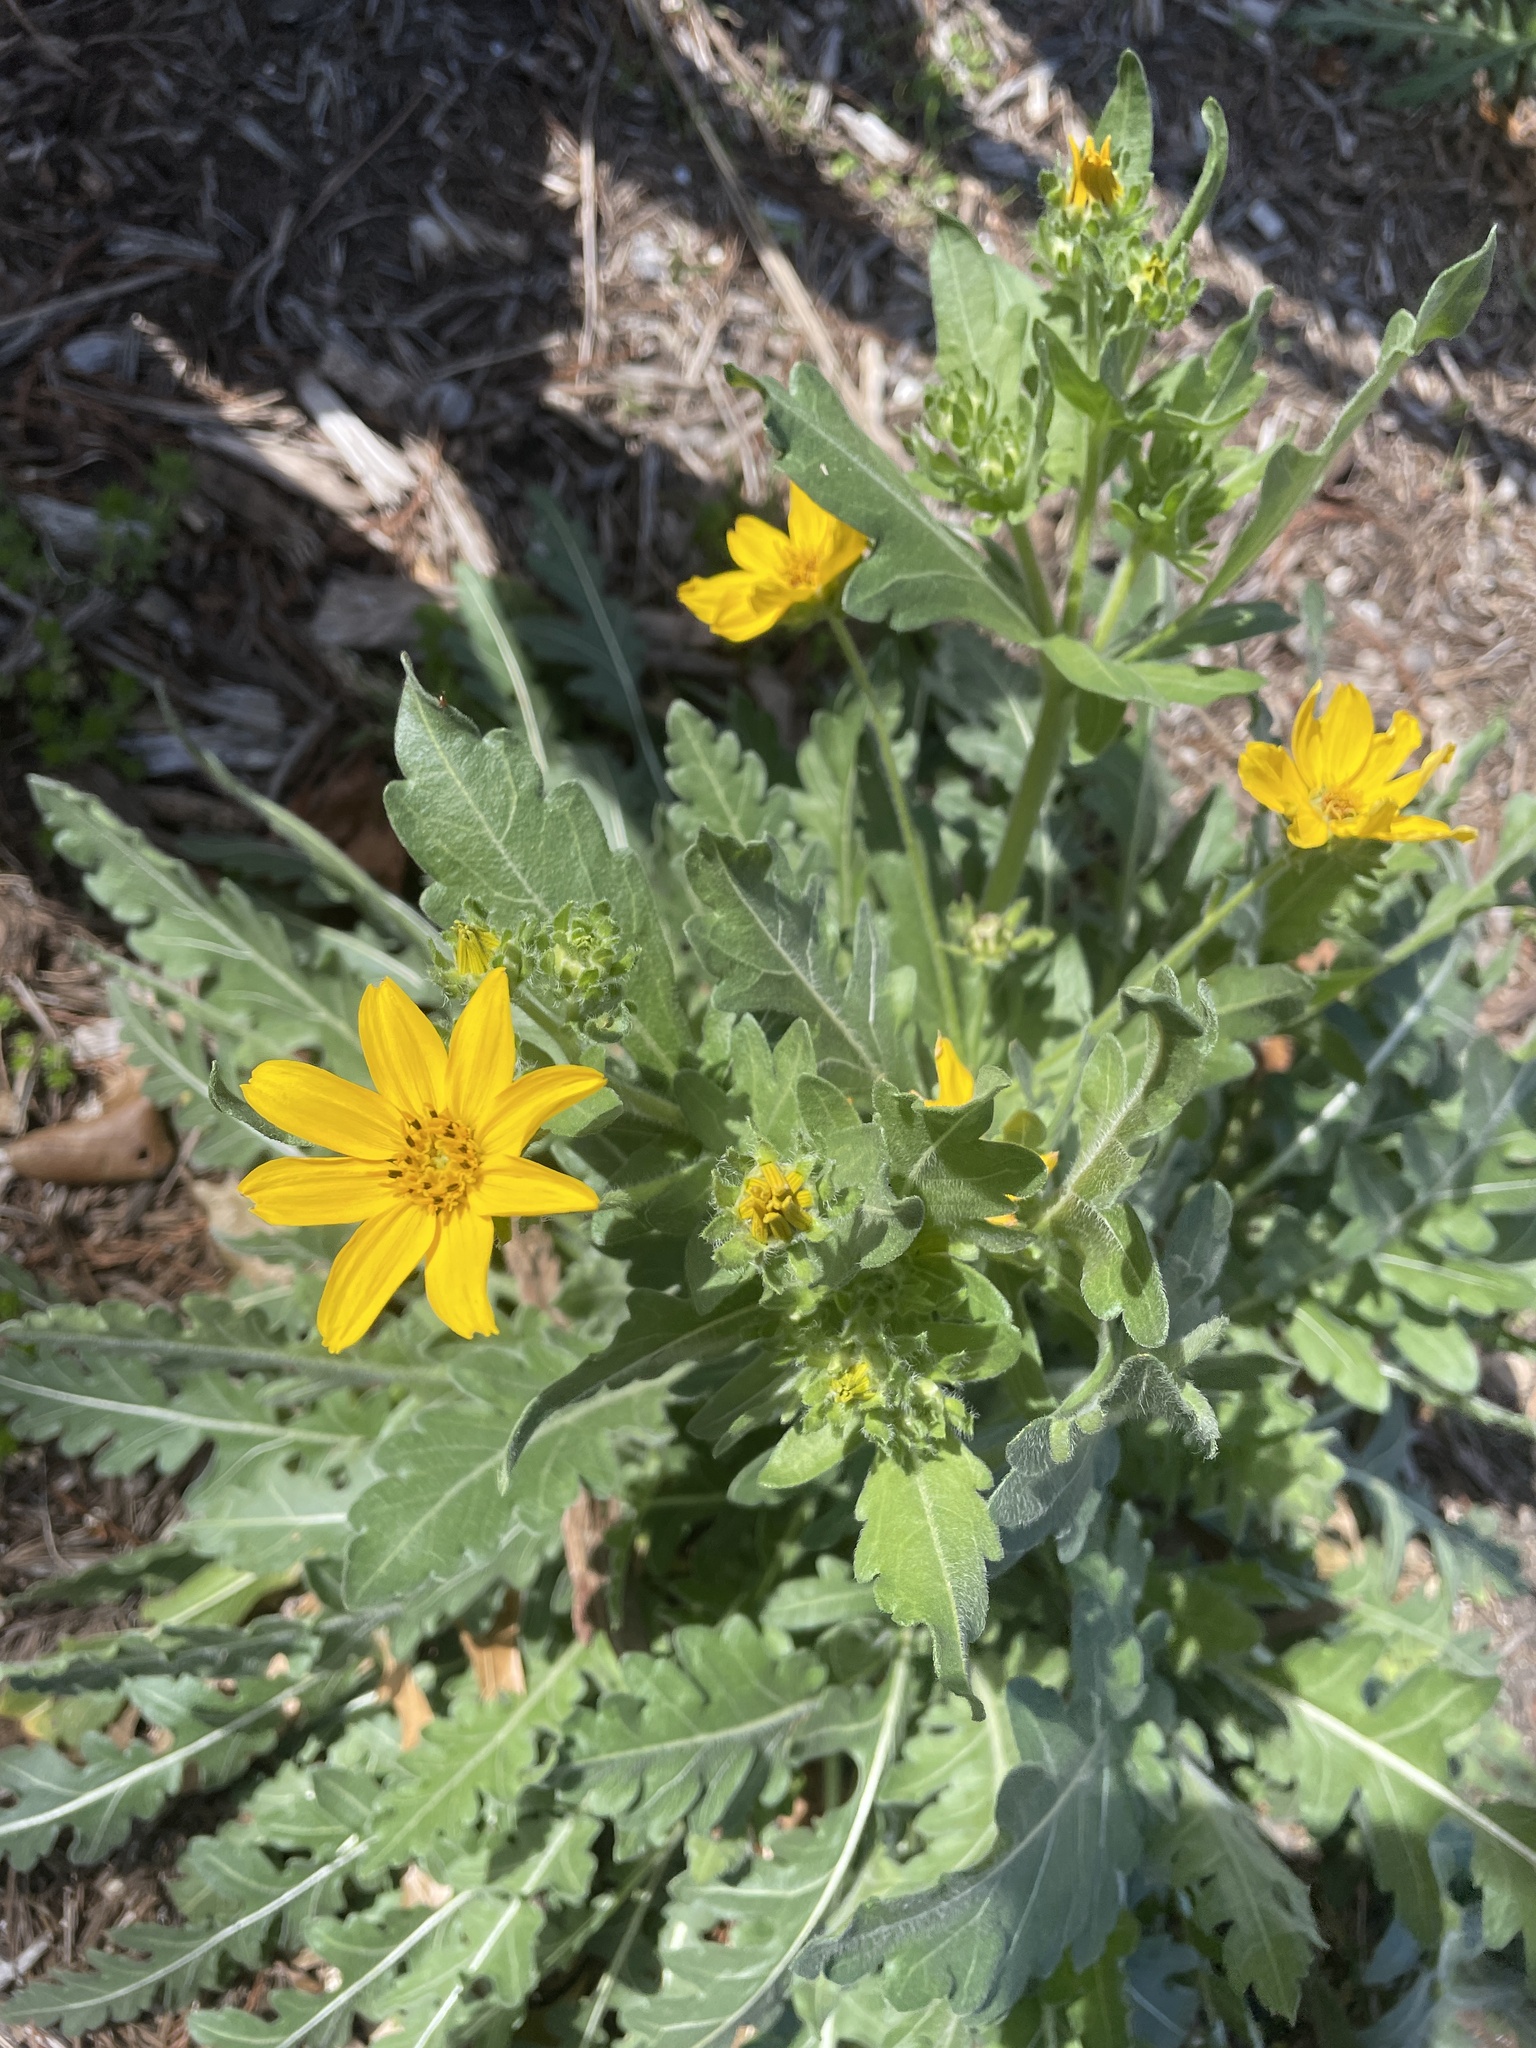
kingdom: Plantae
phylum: Tracheophyta
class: Magnoliopsida
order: Asterales
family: Asteraceae
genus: Engelmannia
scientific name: Engelmannia peristenia
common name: Engelmann's daisy
